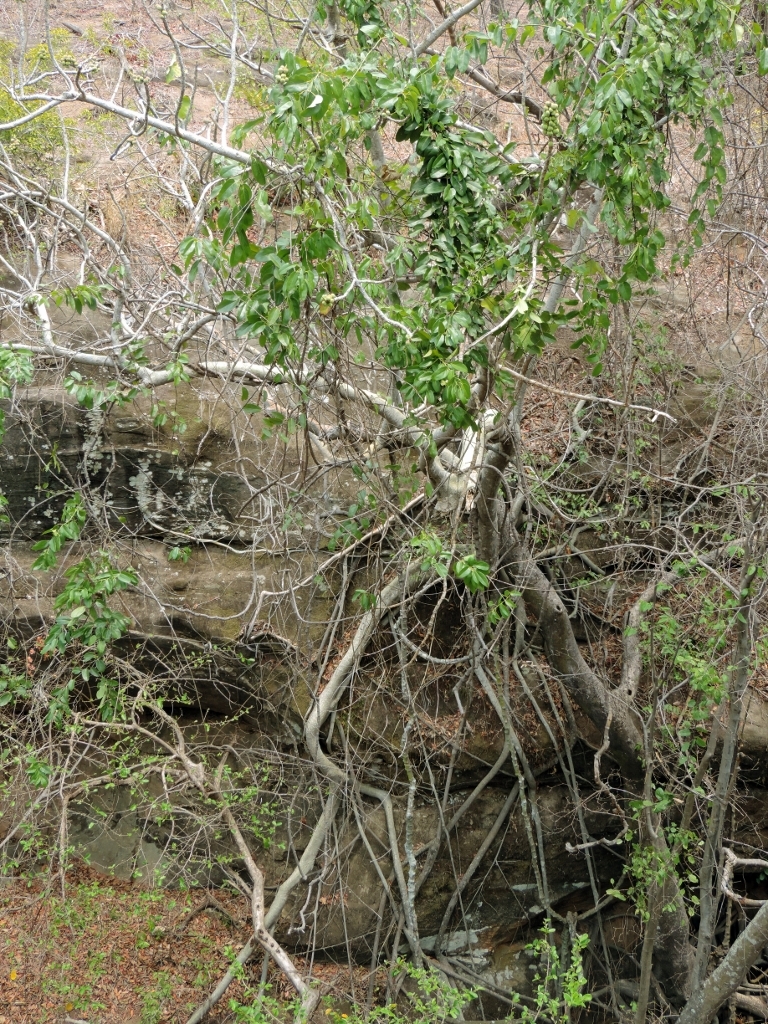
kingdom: Plantae
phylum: Tracheophyta
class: Magnoliopsida
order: Rosales
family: Moraceae
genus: Ficus
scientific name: Ficus abutilifolia
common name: Large-leaved rock fig
